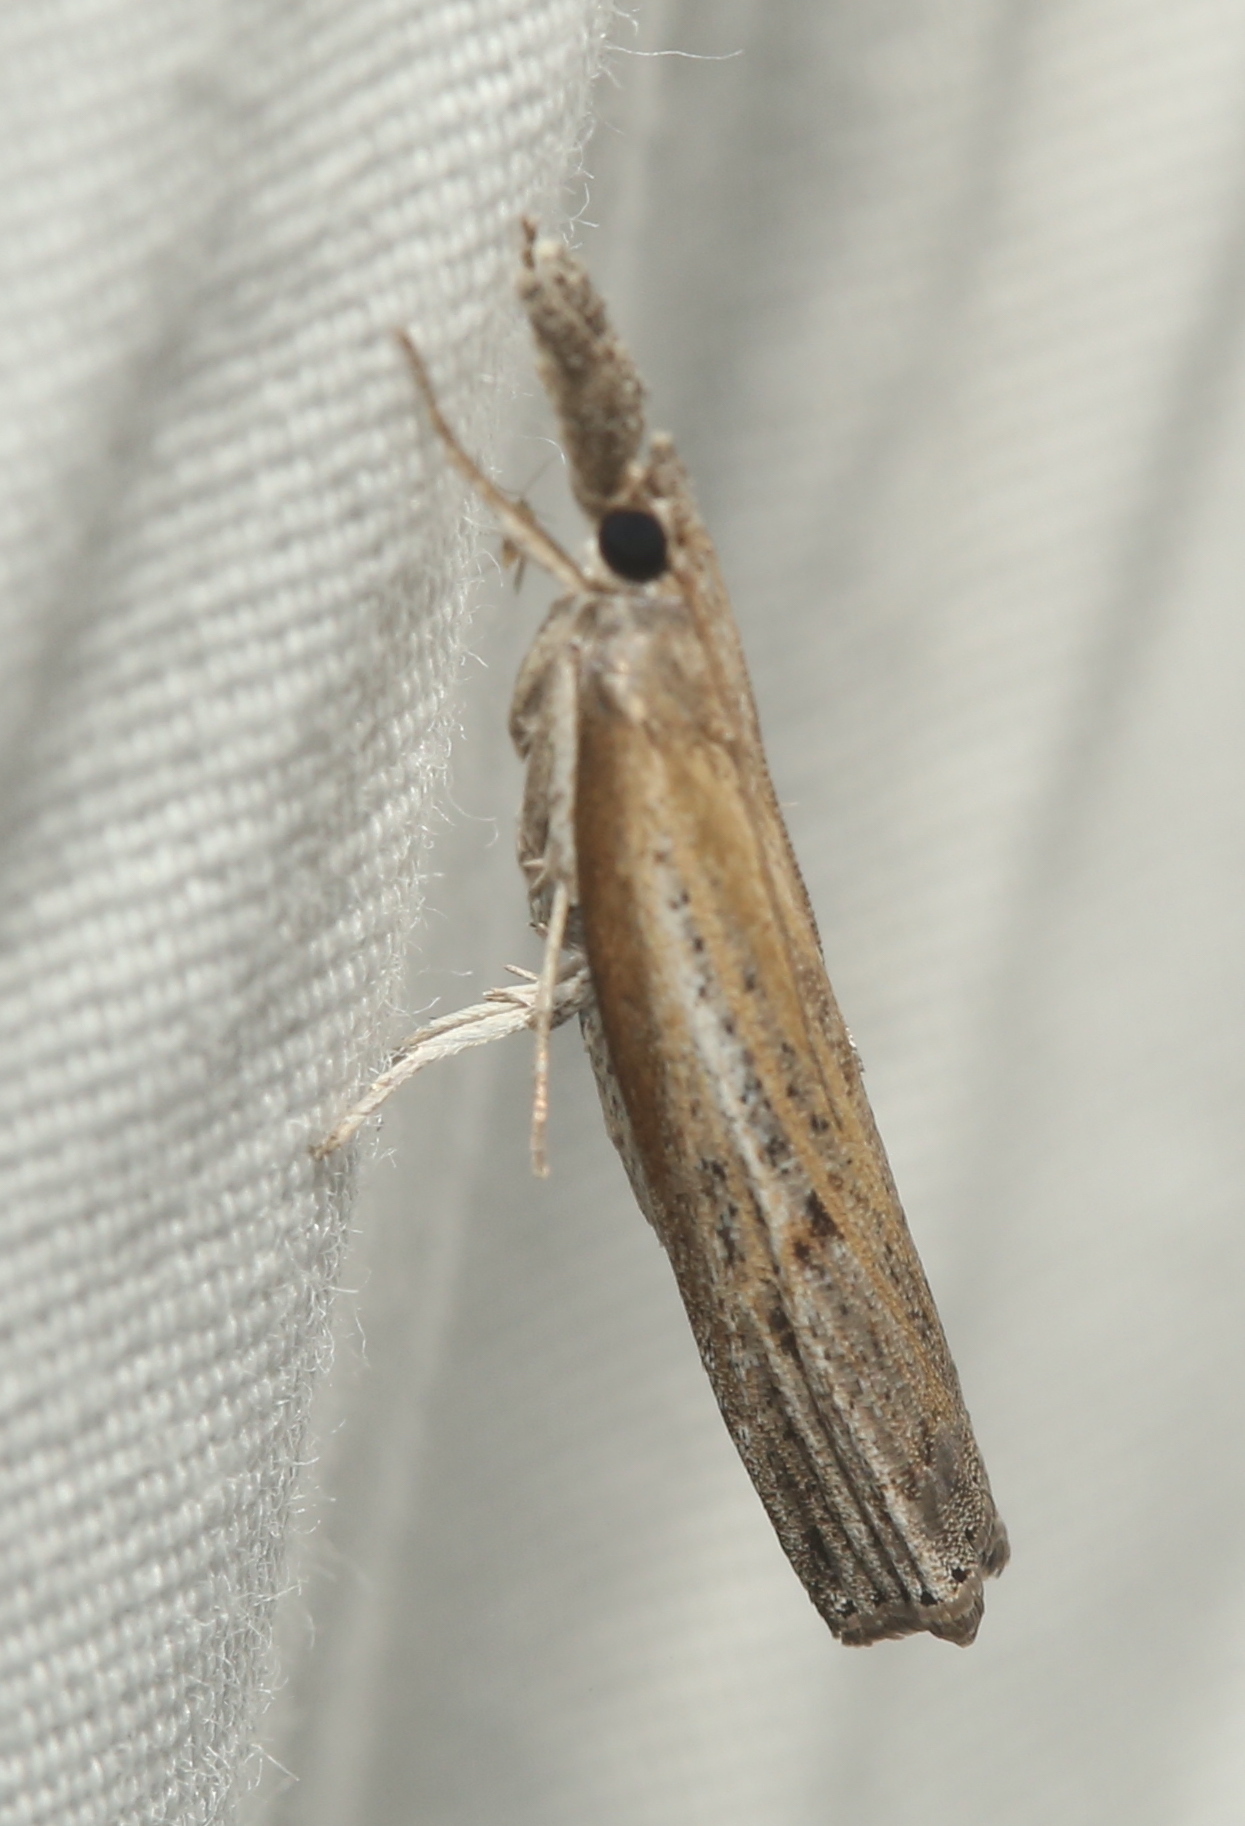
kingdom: Animalia
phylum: Arthropoda
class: Insecta
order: Lepidoptera
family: Crambidae
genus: Fissicrambus
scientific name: Fissicrambus mutabilis
